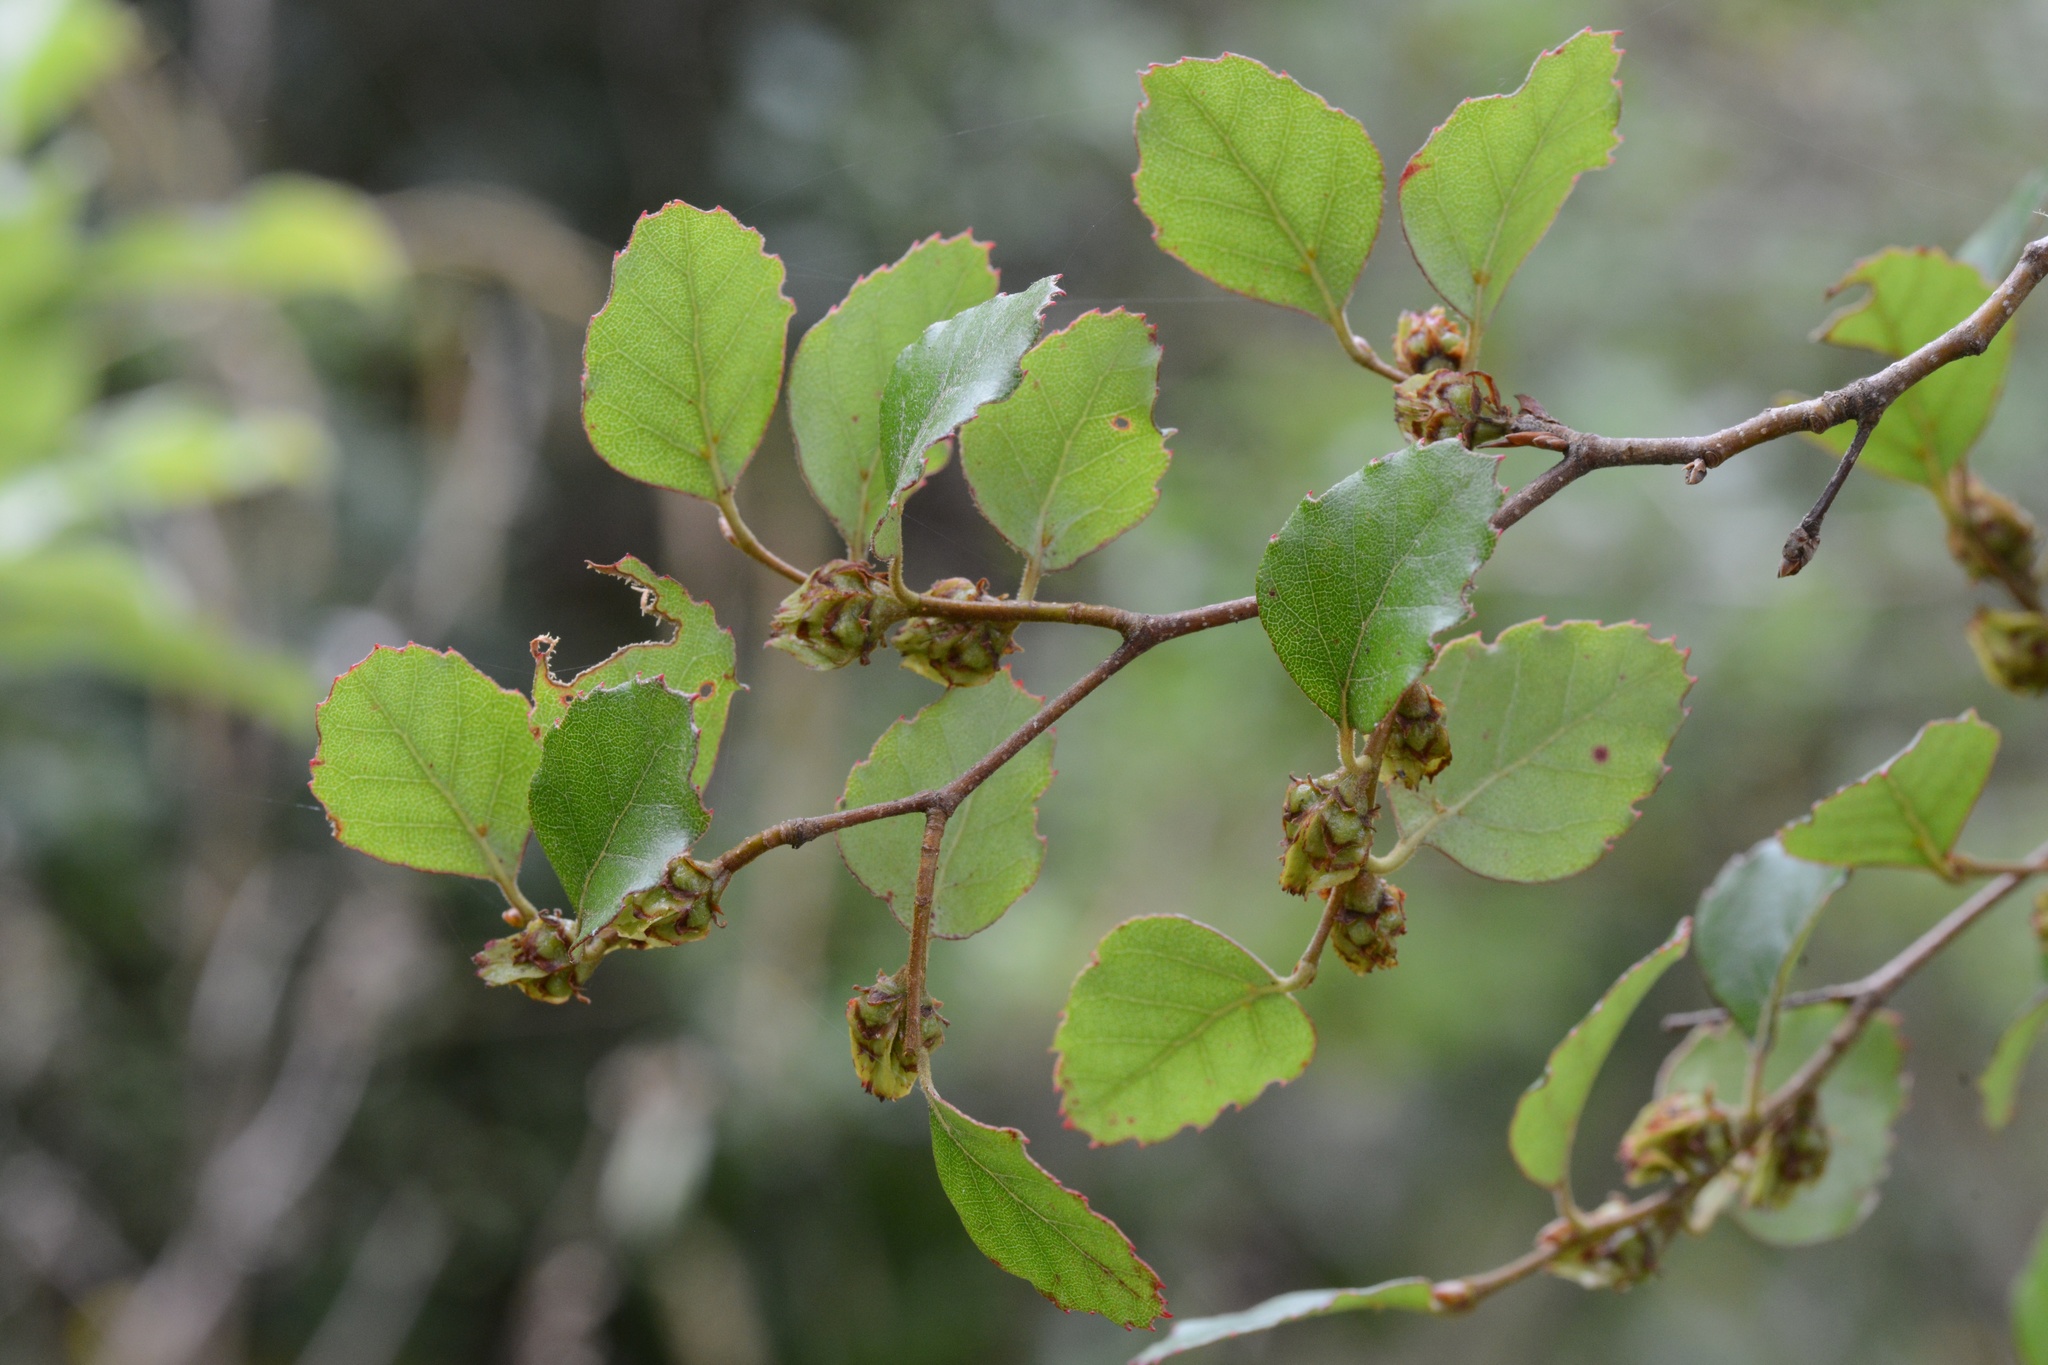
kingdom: Plantae
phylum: Tracheophyta
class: Magnoliopsida
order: Fagales
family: Nothofagaceae
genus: Nothofagus
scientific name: Nothofagus fusca
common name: Red beech
